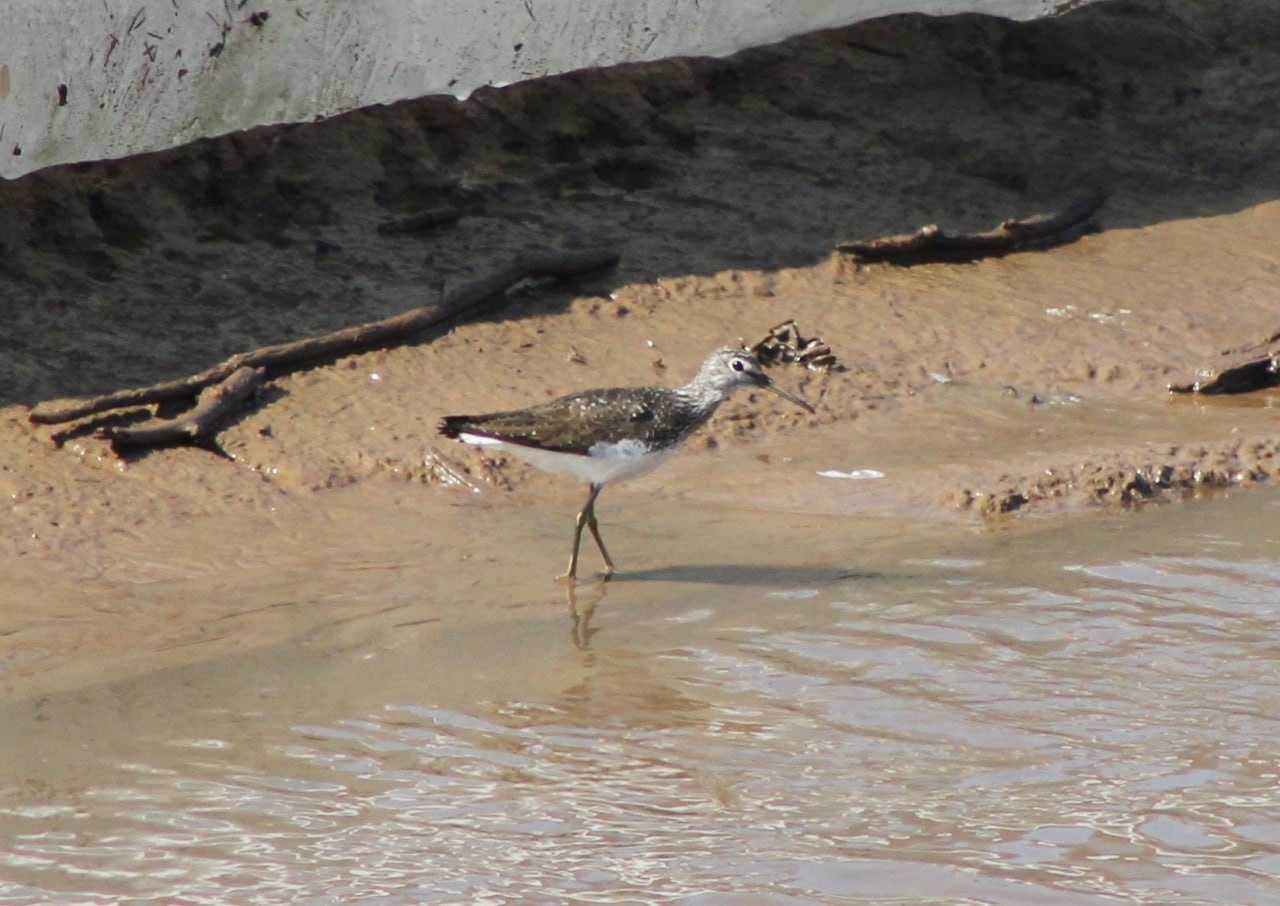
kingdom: Animalia
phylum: Chordata
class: Aves
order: Charadriiformes
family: Scolopacidae
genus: Tringa
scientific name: Tringa ochropus
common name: Green sandpiper
